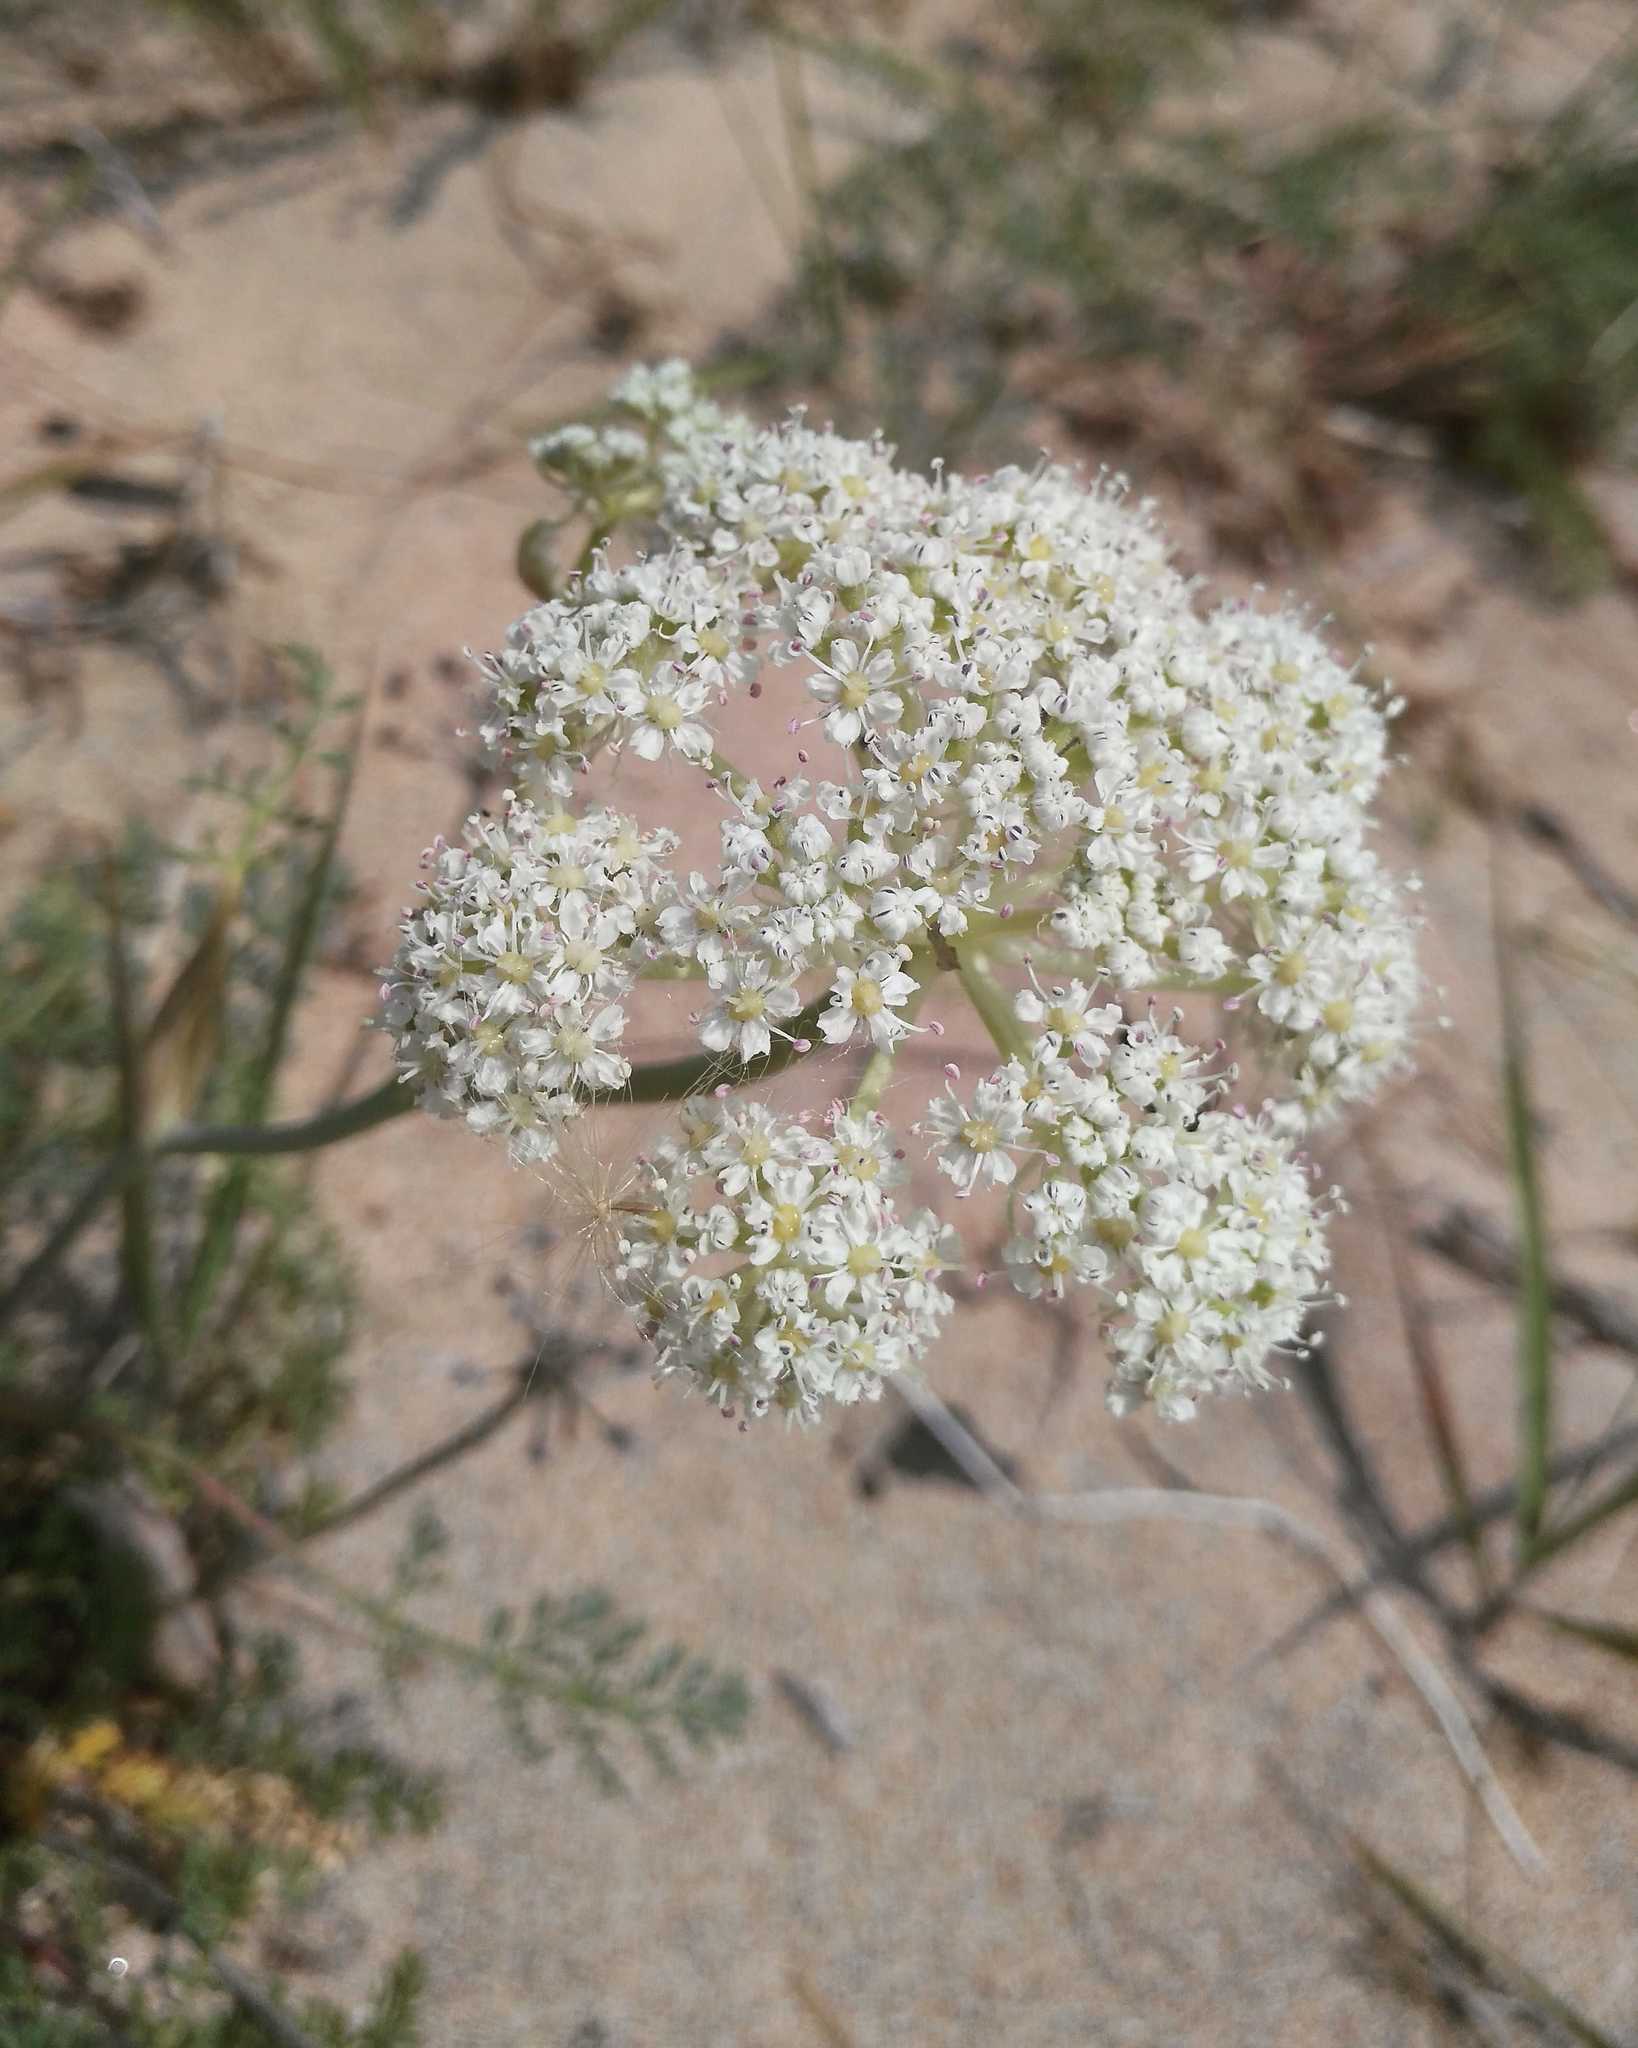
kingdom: Plantae
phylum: Tracheophyta
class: Magnoliopsida
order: Apiales
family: Apiaceae
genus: Phlojodicarpus
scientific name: Phlojodicarpus sibiricus
